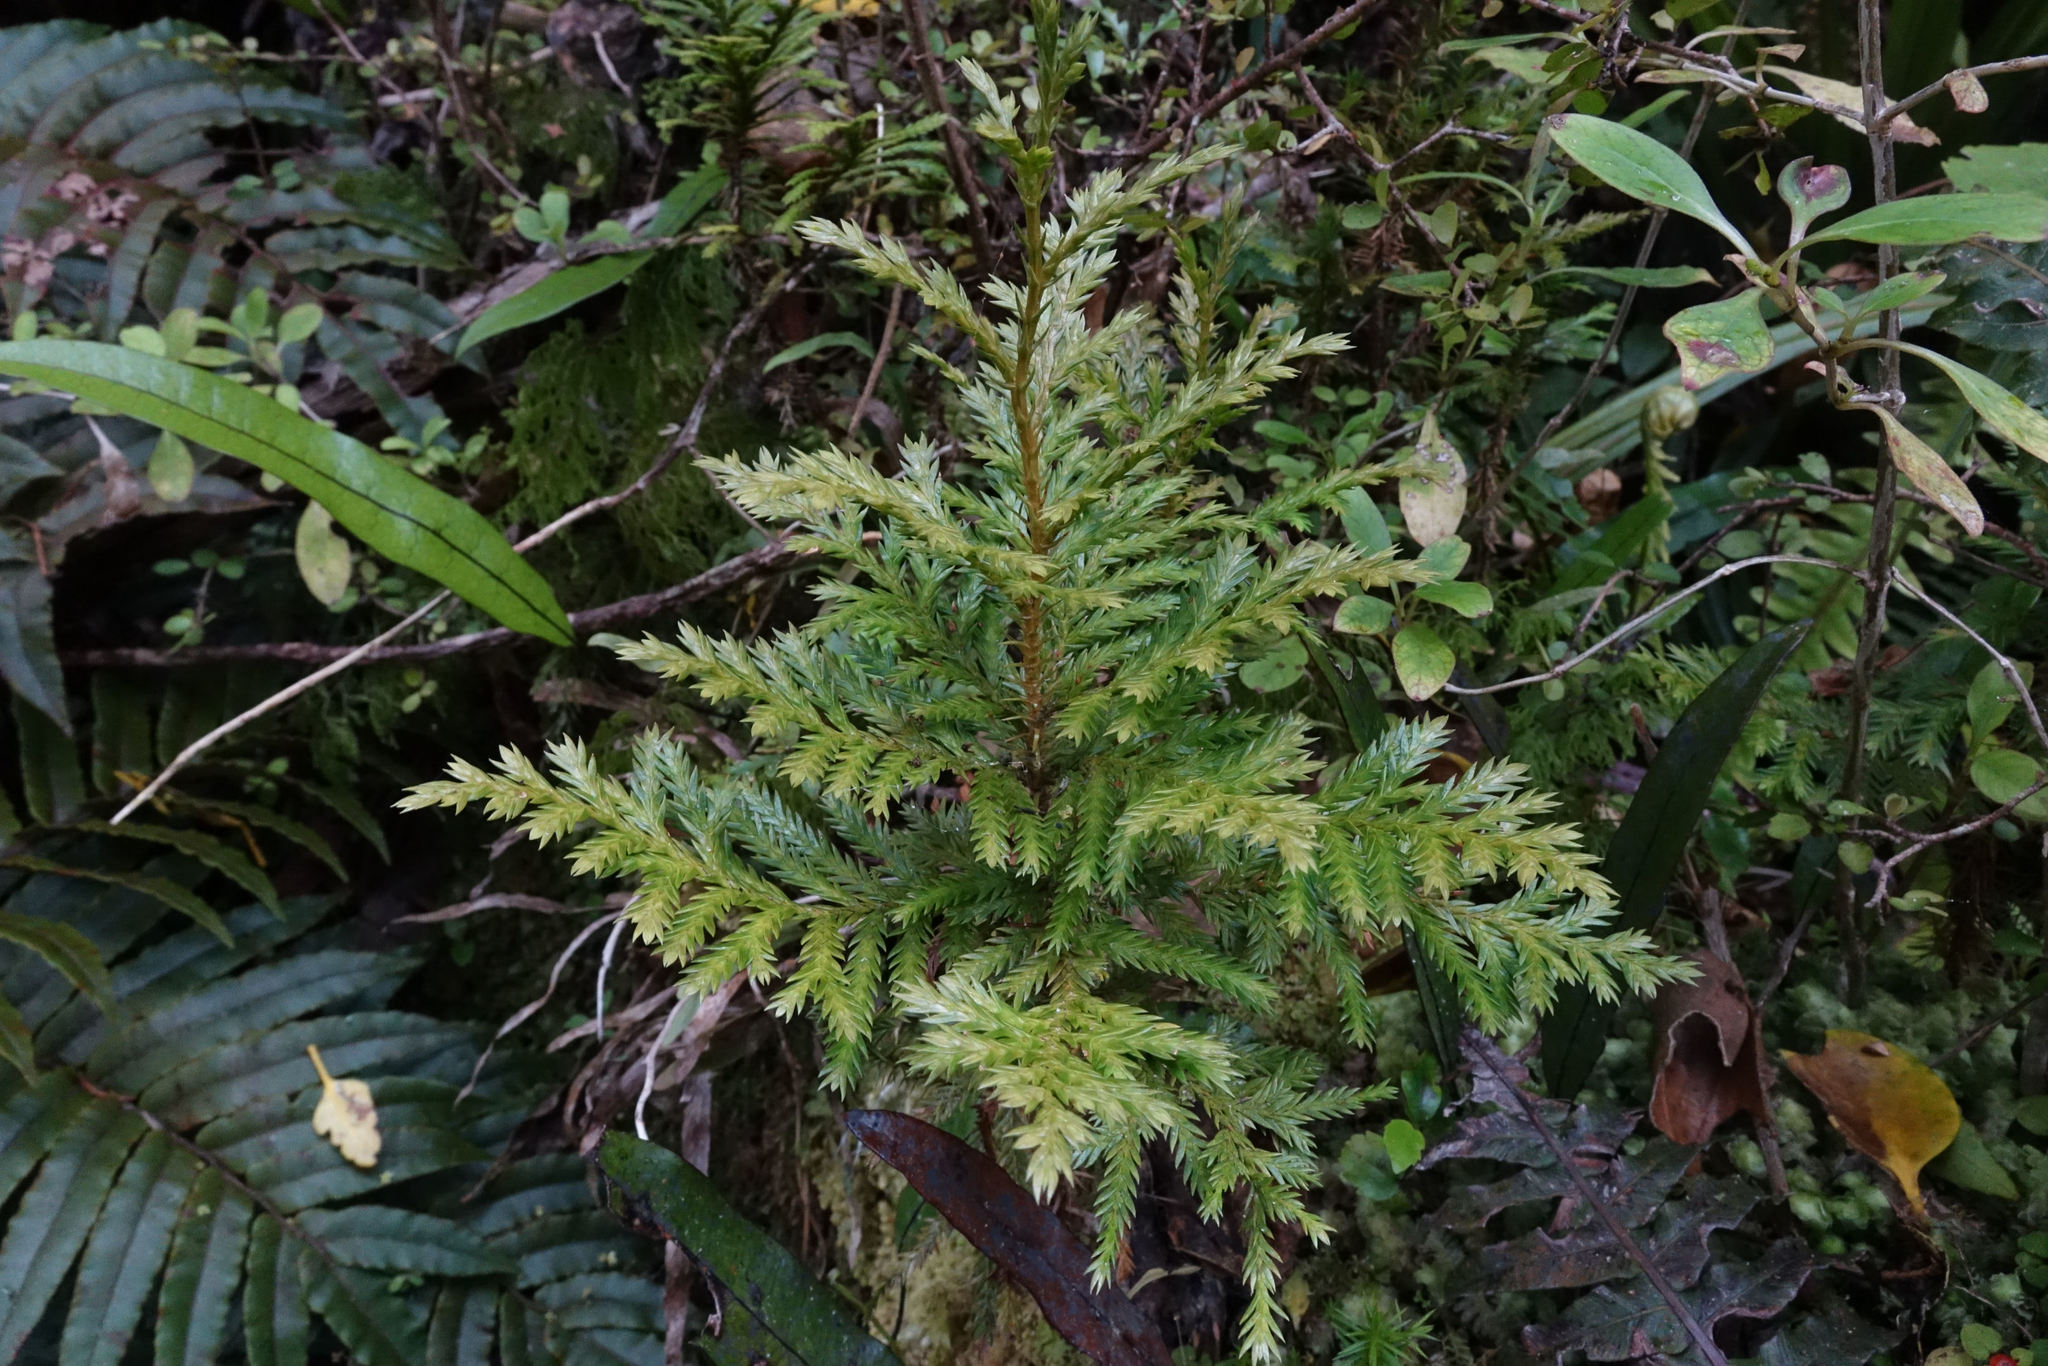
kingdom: Plantae
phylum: Tracheophyta
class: Pinopsida
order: Pinales
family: Cupressaceae
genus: Libocedrus
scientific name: Libocedrus bidwillii
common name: Cedar
